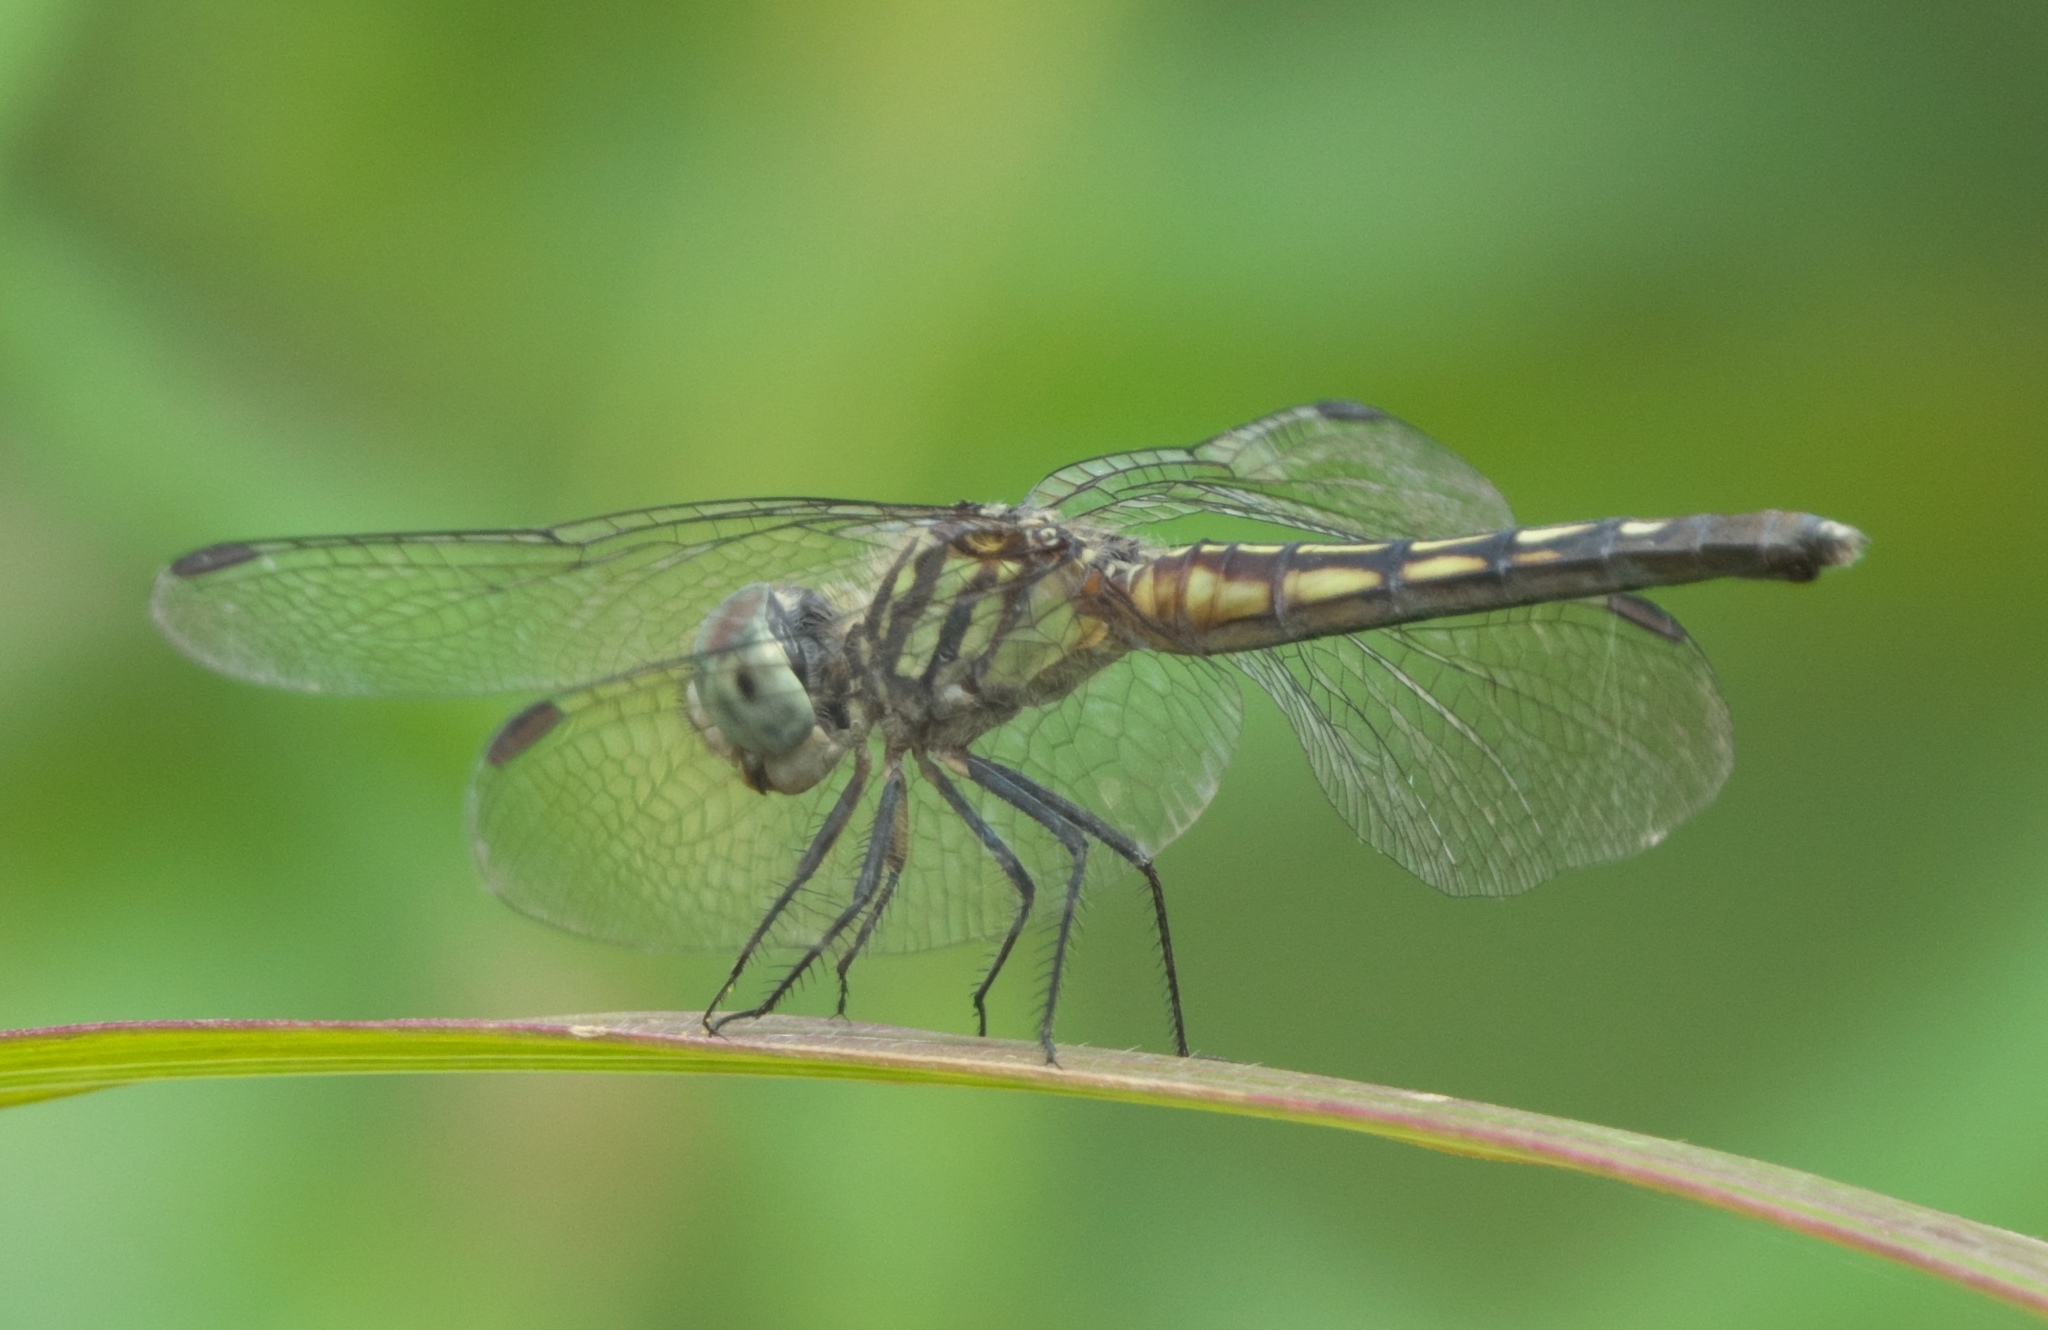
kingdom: Animalia
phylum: Arthropoda
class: Insecta
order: Odonata
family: Libellulidae
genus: Pachydiplax
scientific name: Pachydiplax longipennis
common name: Blue dasher
